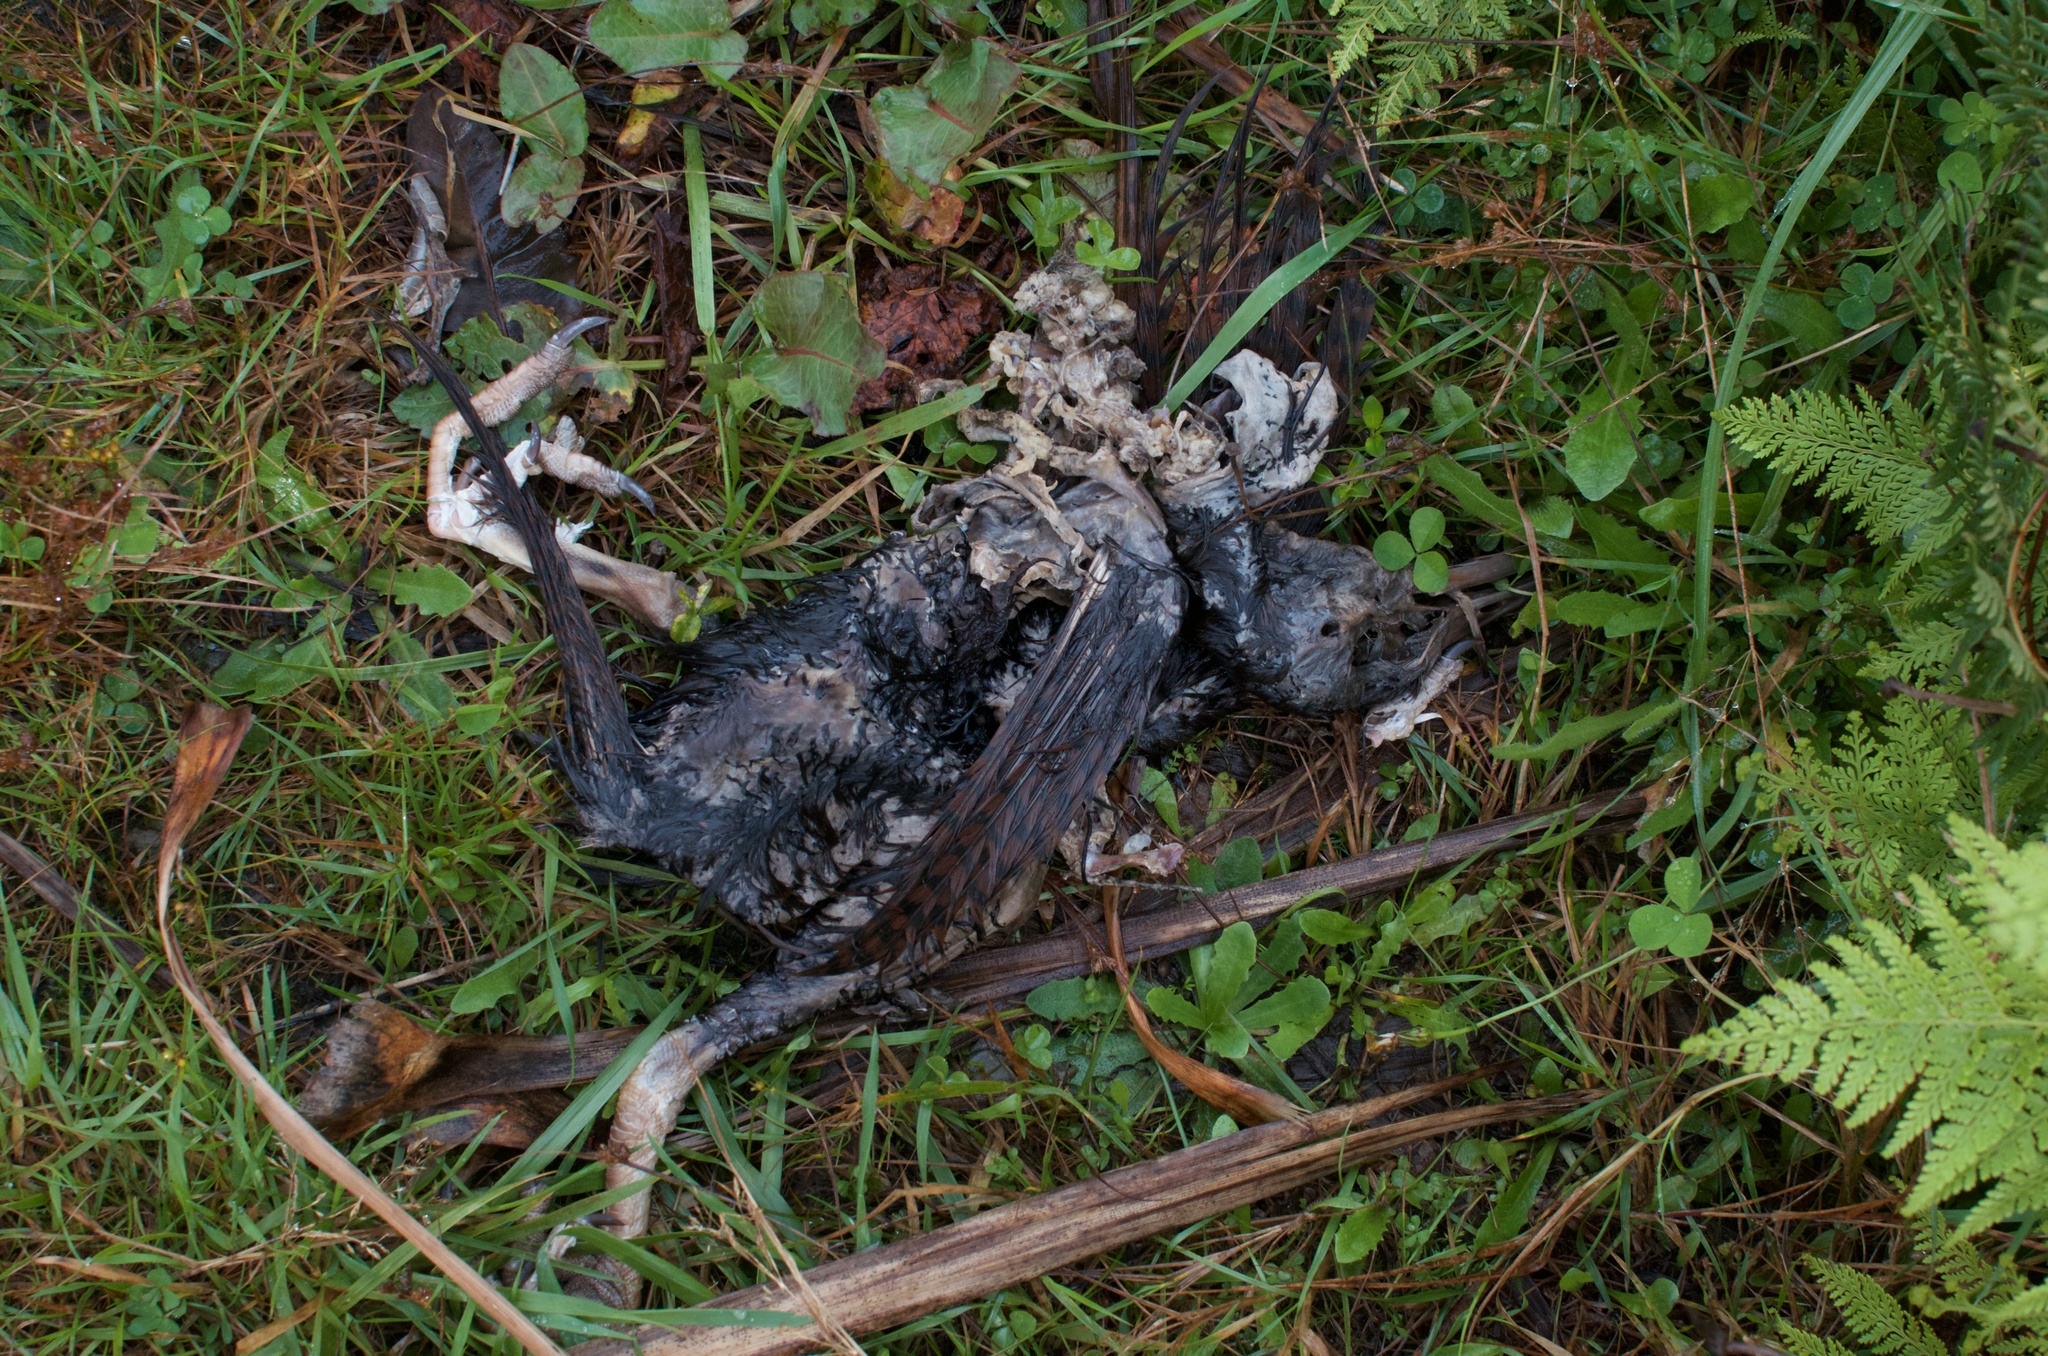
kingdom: Animalia
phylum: Chordata
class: Aves
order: Gruiformes
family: Rallidae
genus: Gallirallus
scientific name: Gallirallus australis
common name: Weka
